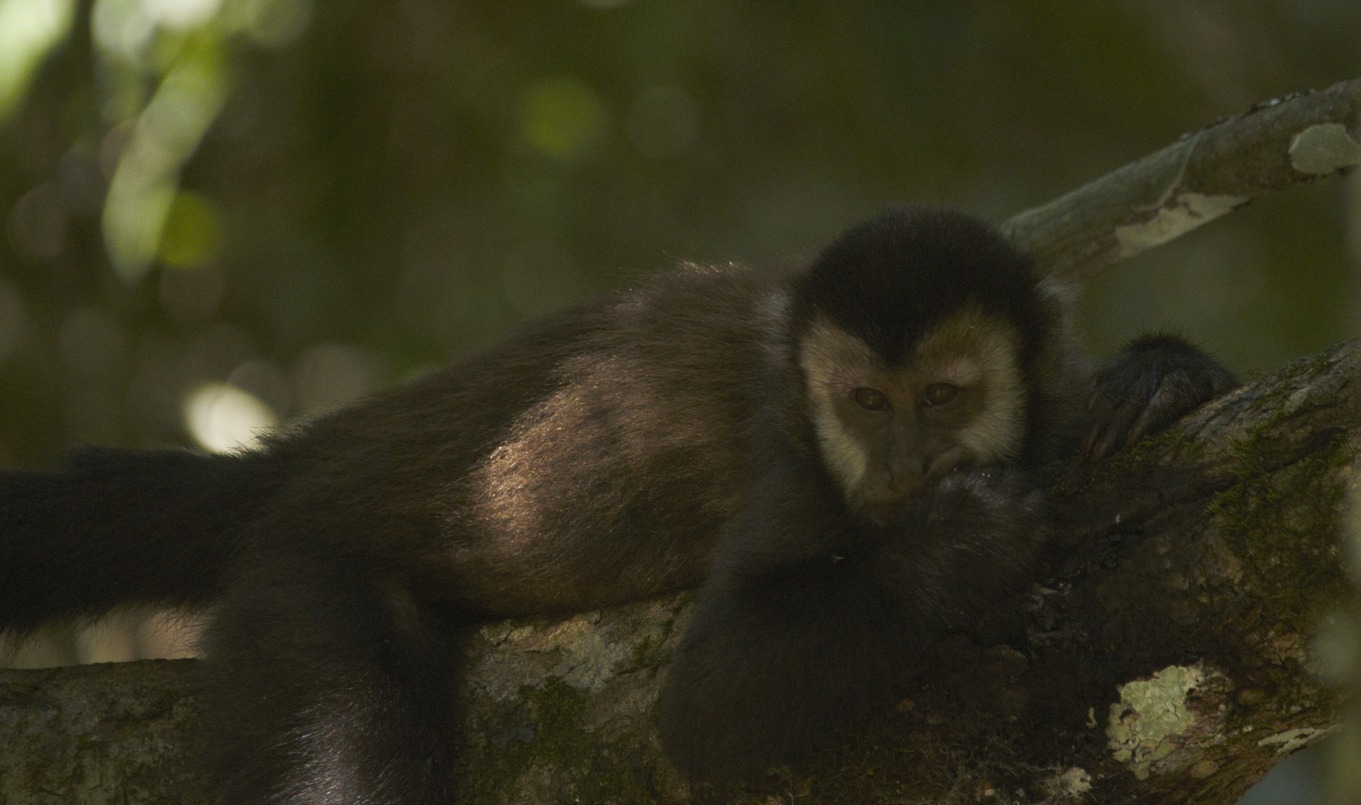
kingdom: Animalia
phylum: Chordata
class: Mammalia
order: Primates
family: Cebidae
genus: Sapajus
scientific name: Sapajus nigritus
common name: Black capuchin
